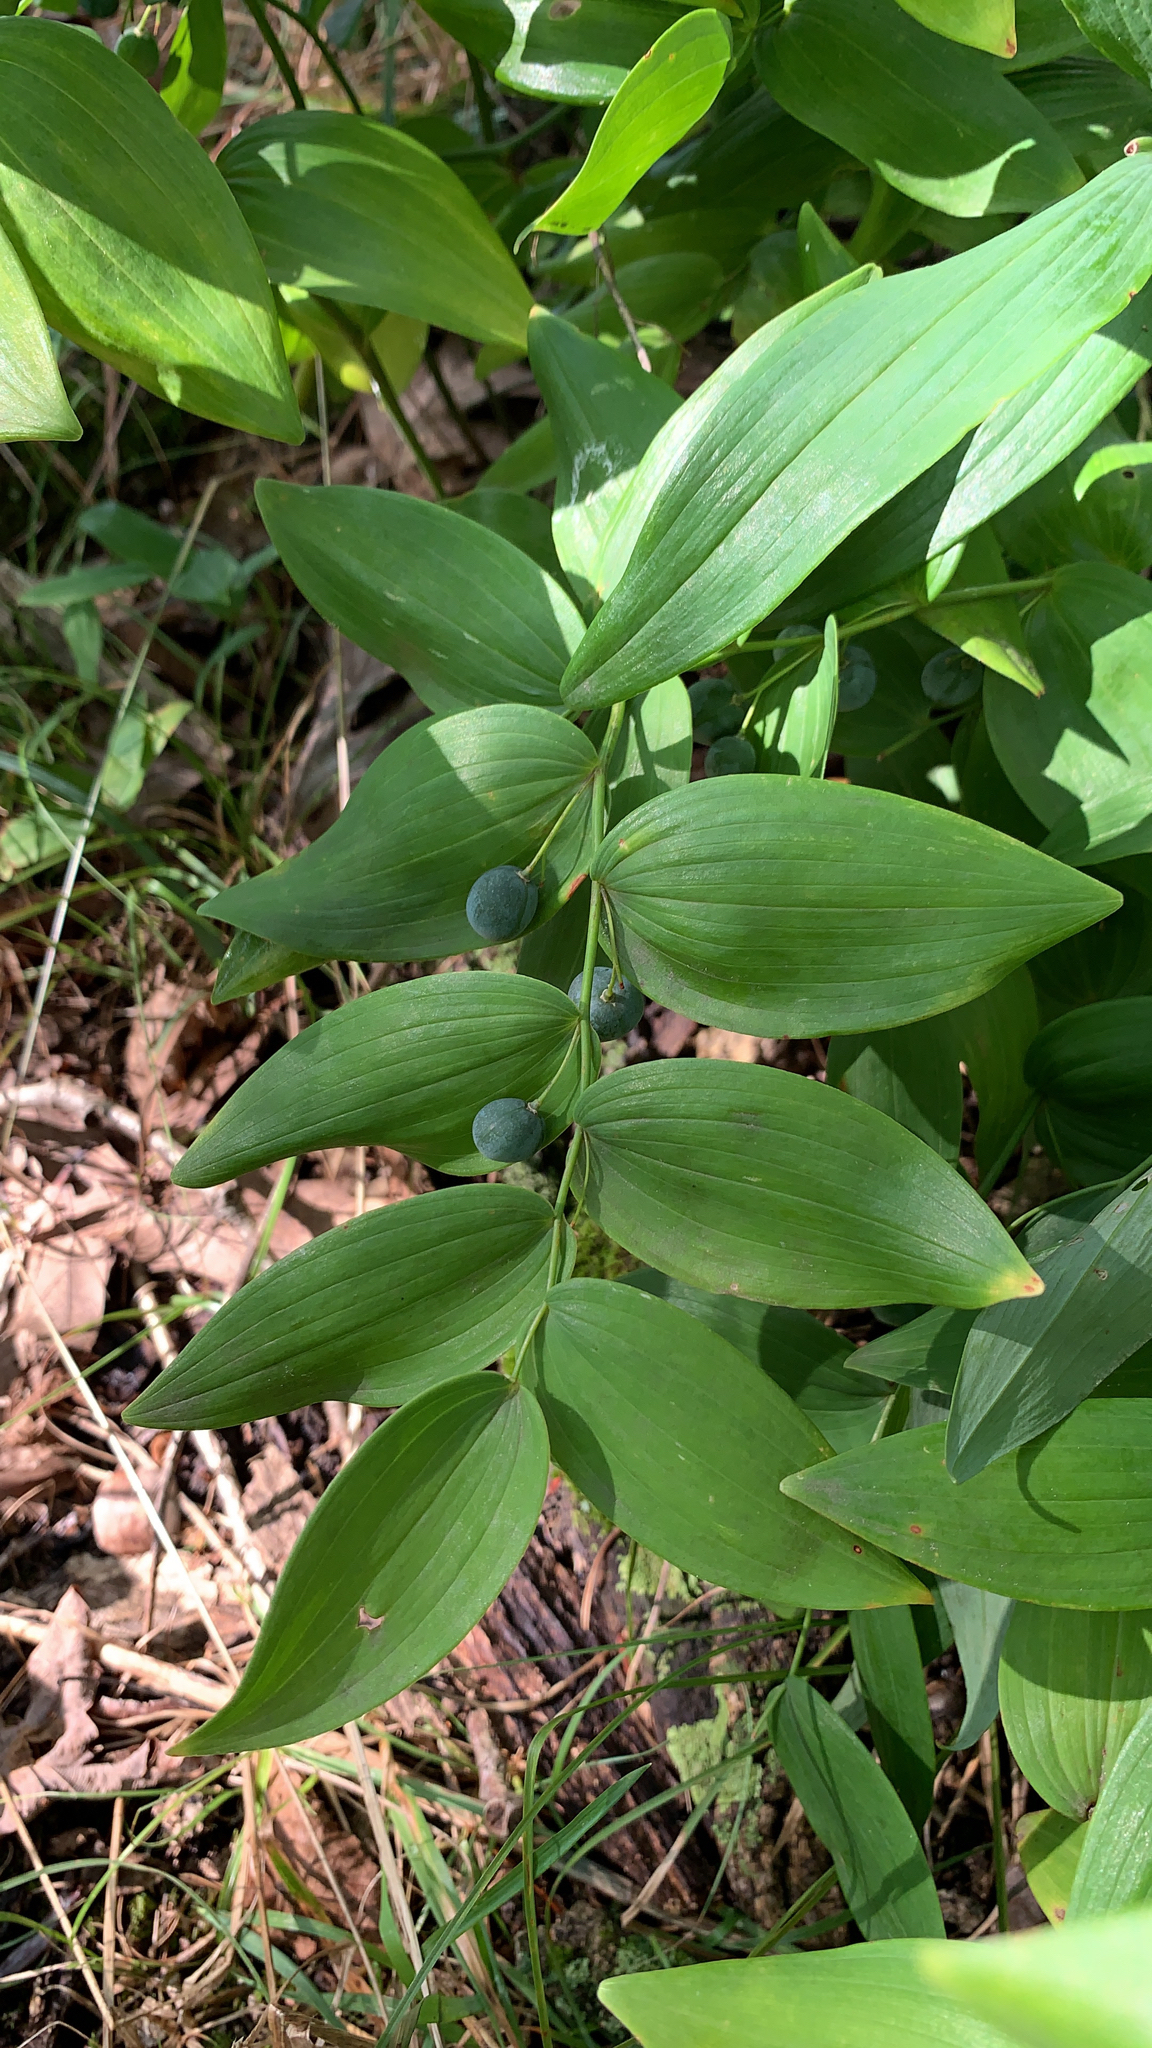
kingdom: Plantae
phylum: Tracheophyta
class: Liliopsida
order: Asparagales
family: Asparagaceae
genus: Polygonatum
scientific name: Polygonatum biflorum
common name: American solomon's-seal
